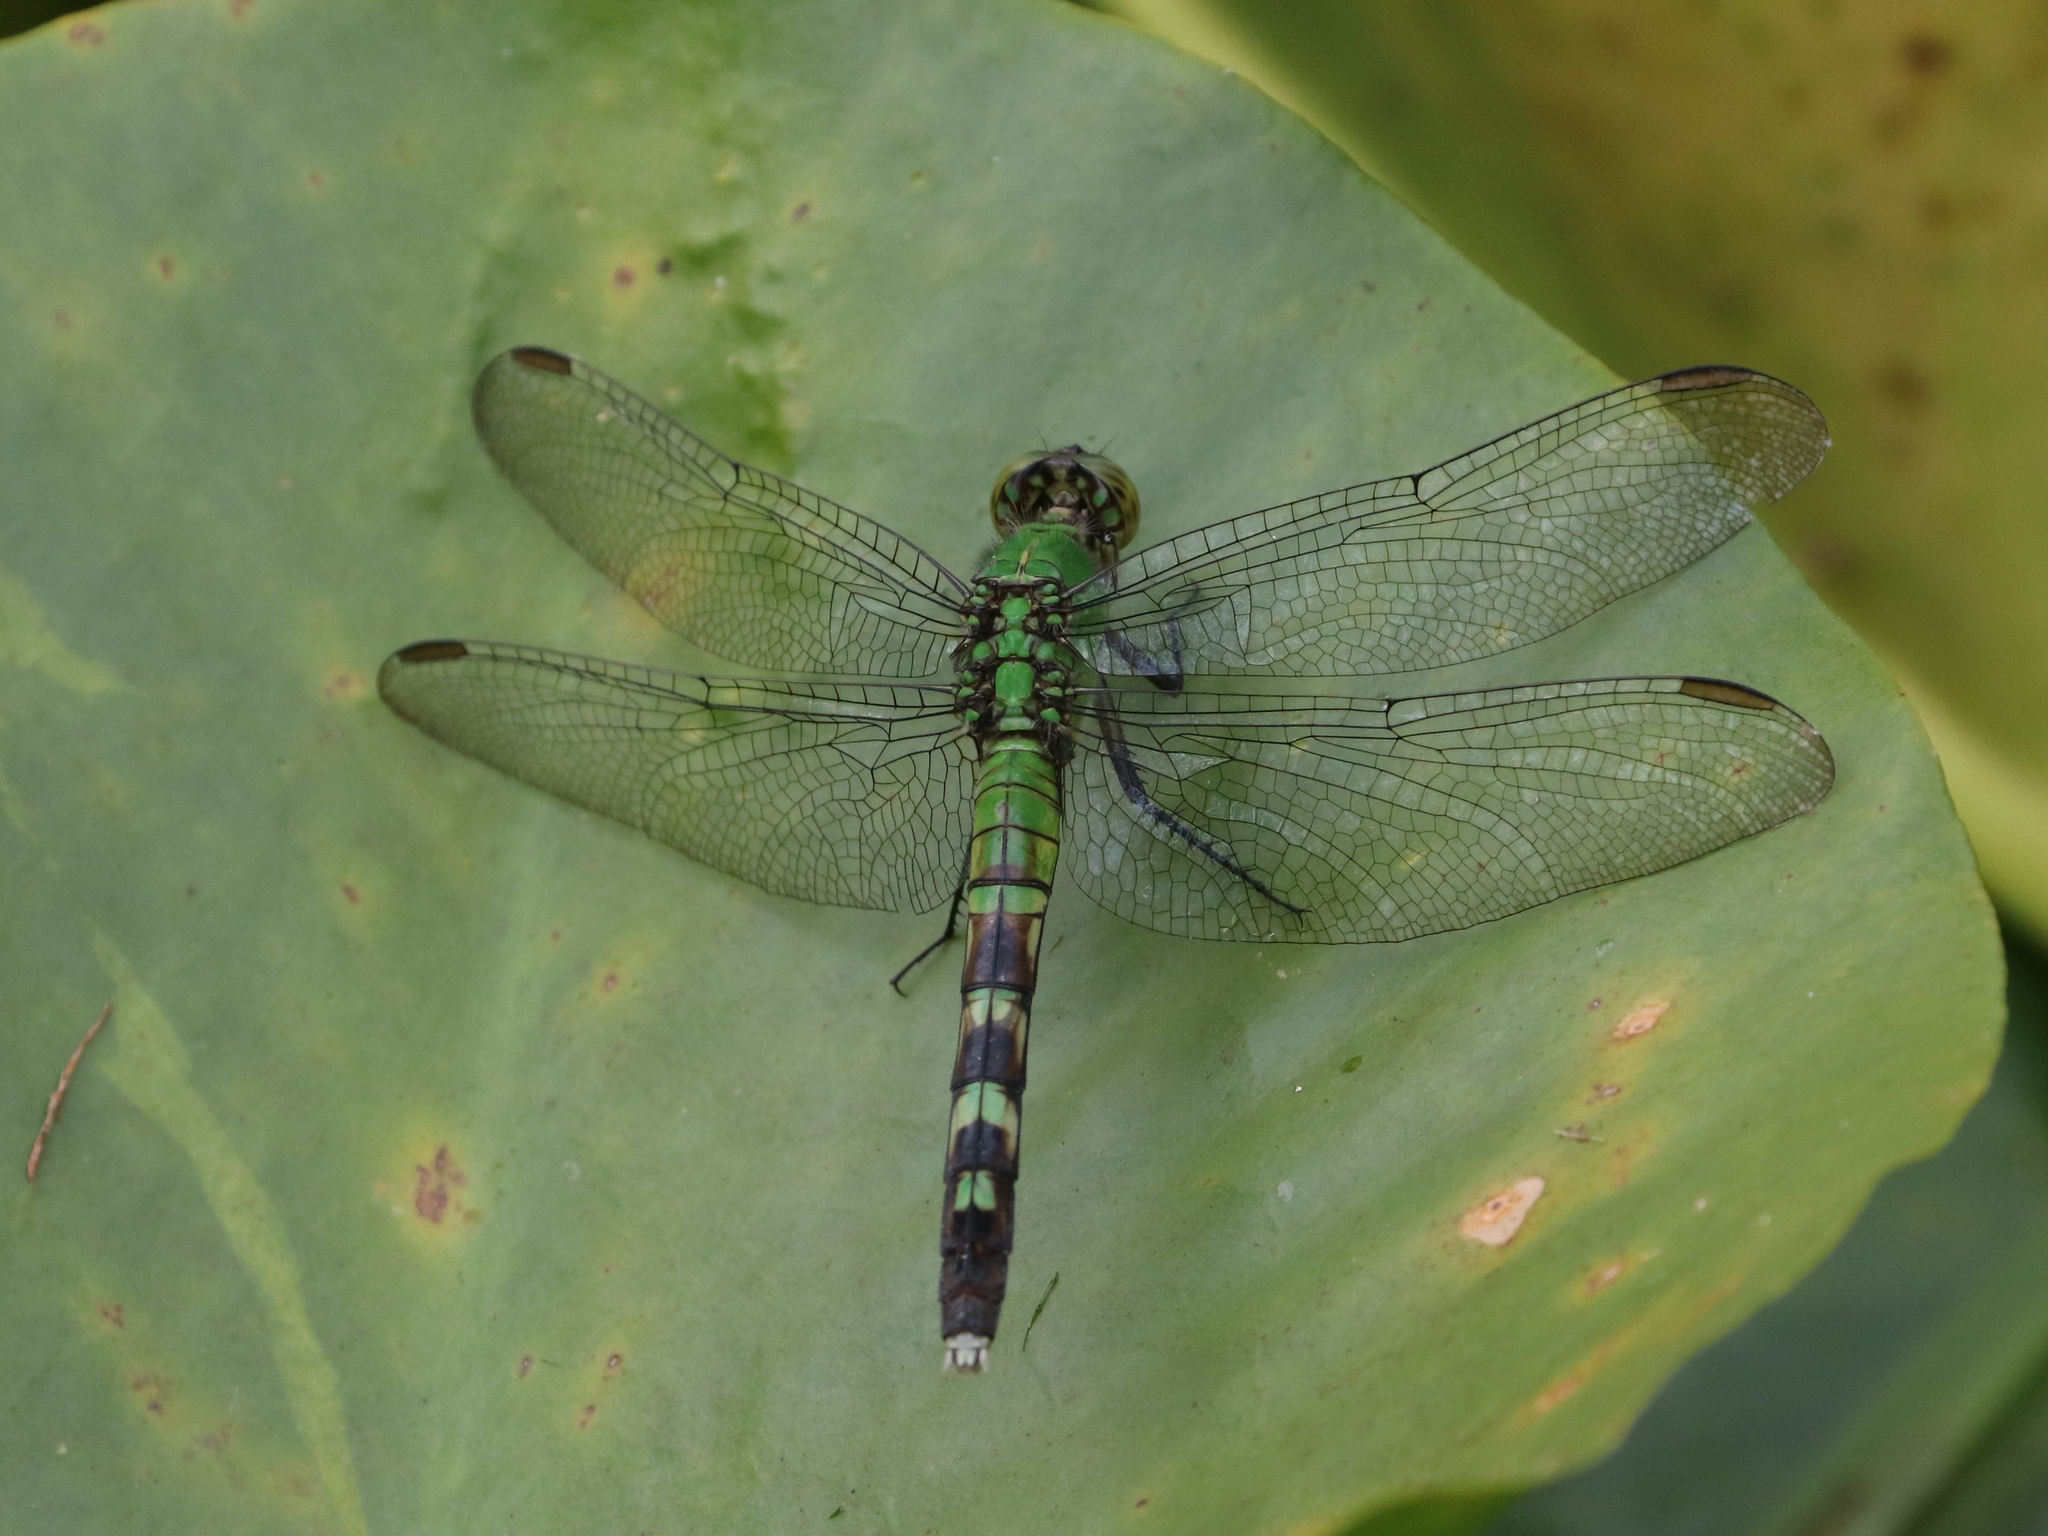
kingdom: Animalia
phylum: Arthropoda
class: Insecta
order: Odonata
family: Libellulidae
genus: Erythemis
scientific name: Erythemis simplicicollis
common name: Eastern pondhawk
